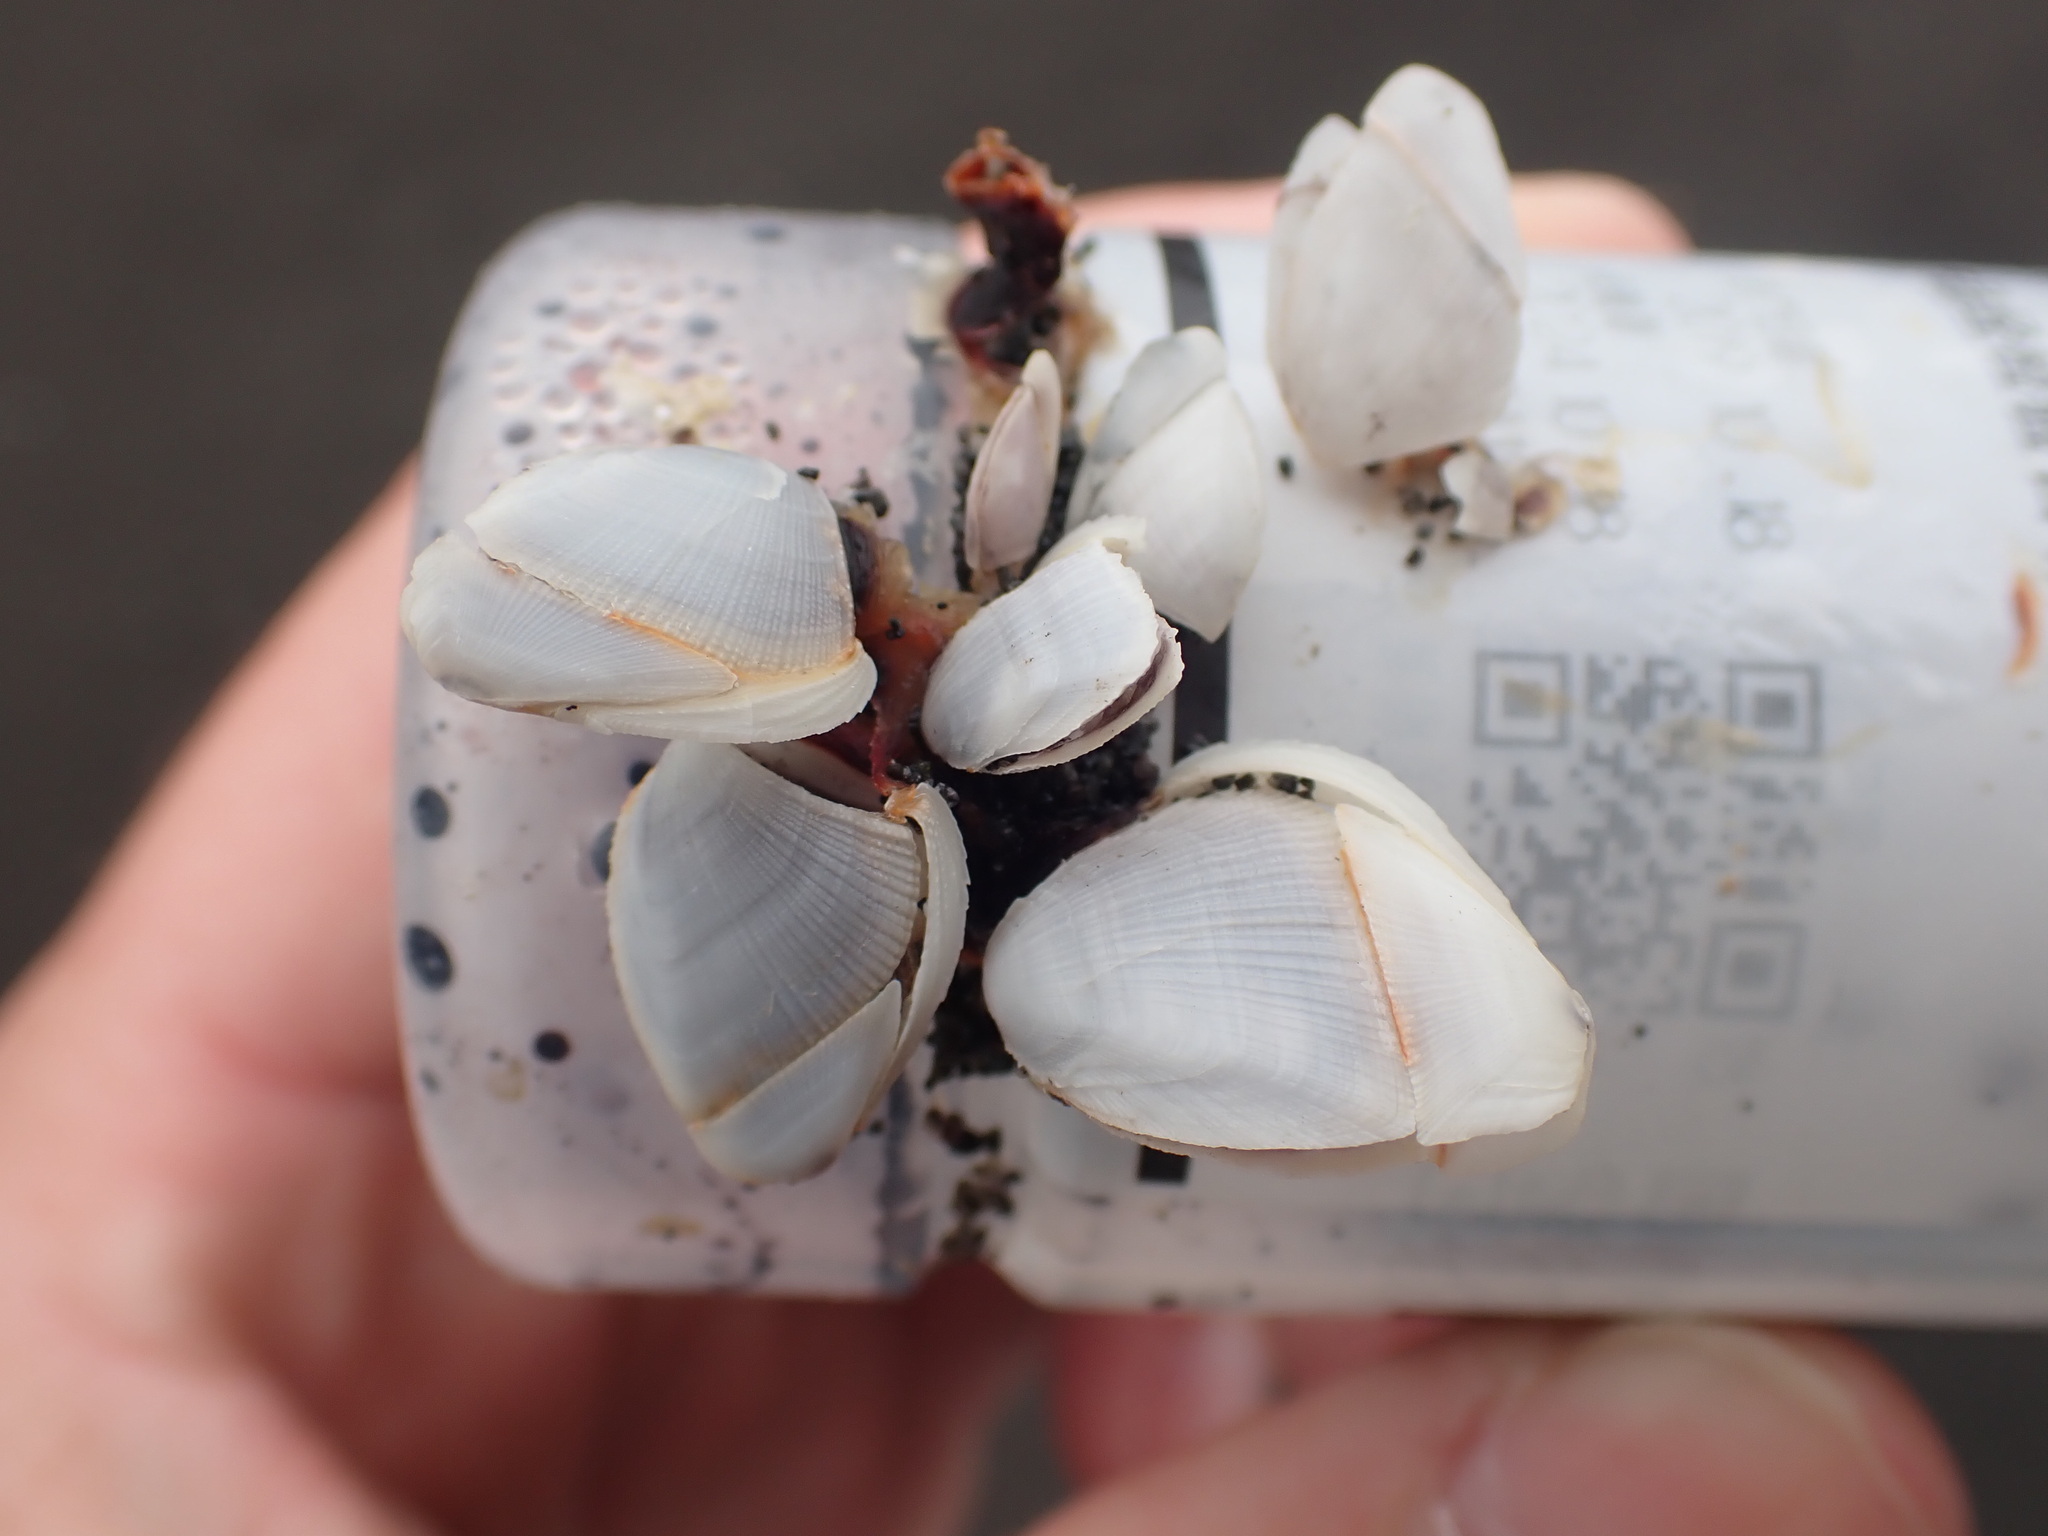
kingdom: Animalia
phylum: Arthropoda
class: Maxillopoda
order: Pedunculata
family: Lepadidae
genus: Lepas
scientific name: Lepas anatifera
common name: Common goose barnacle
